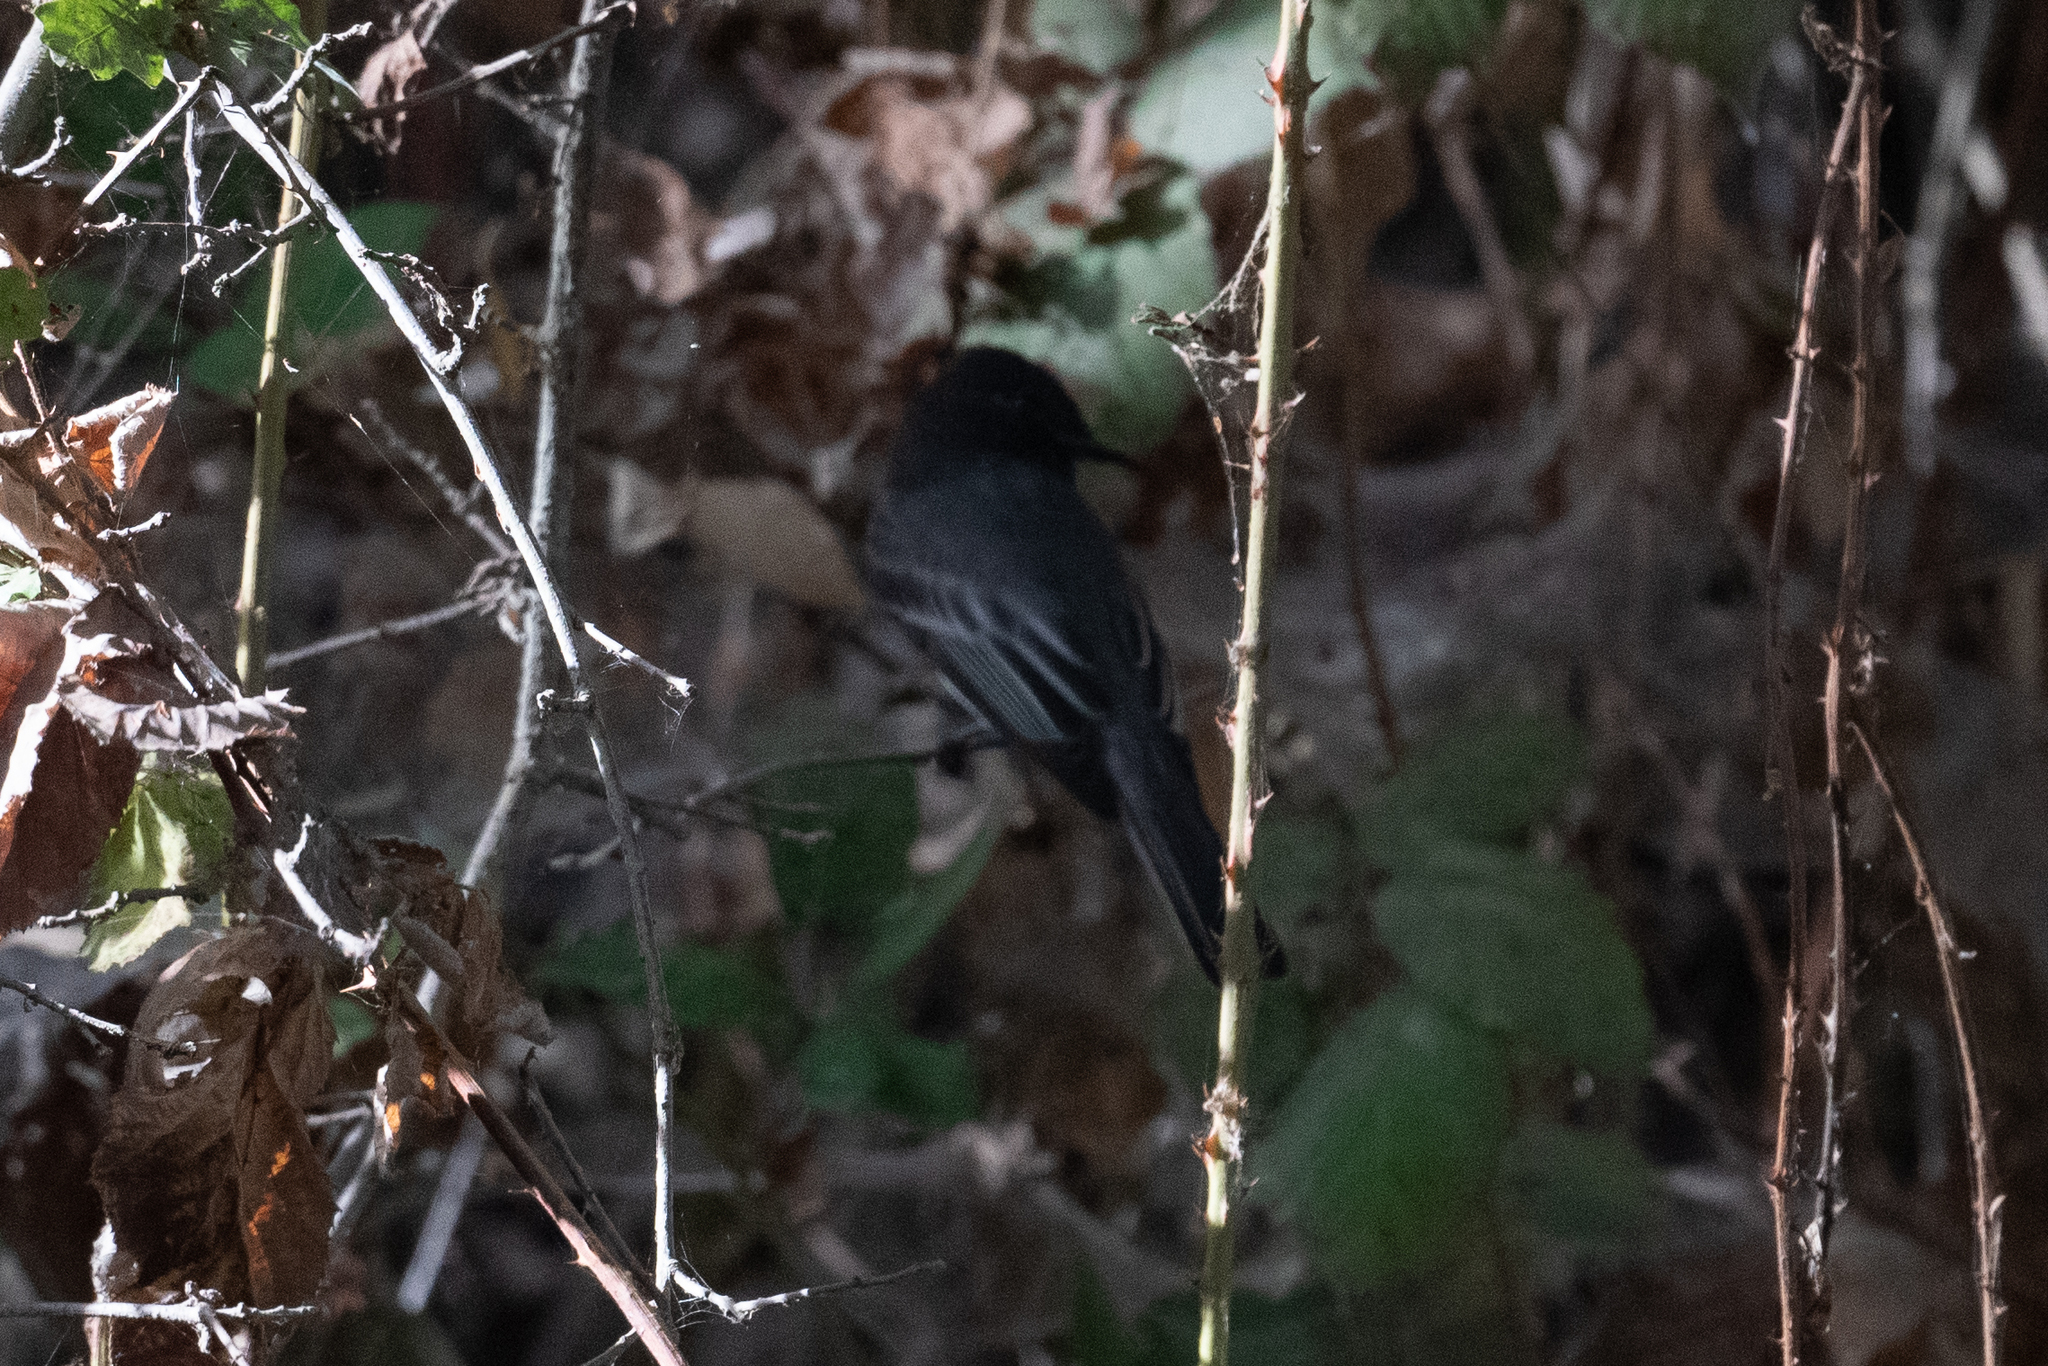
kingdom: Animalia
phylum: Chordata
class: Aves
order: Passeriformes
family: Tyrannidae
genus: Sayornis
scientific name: Sayornis nigricans
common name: Black phoebe
